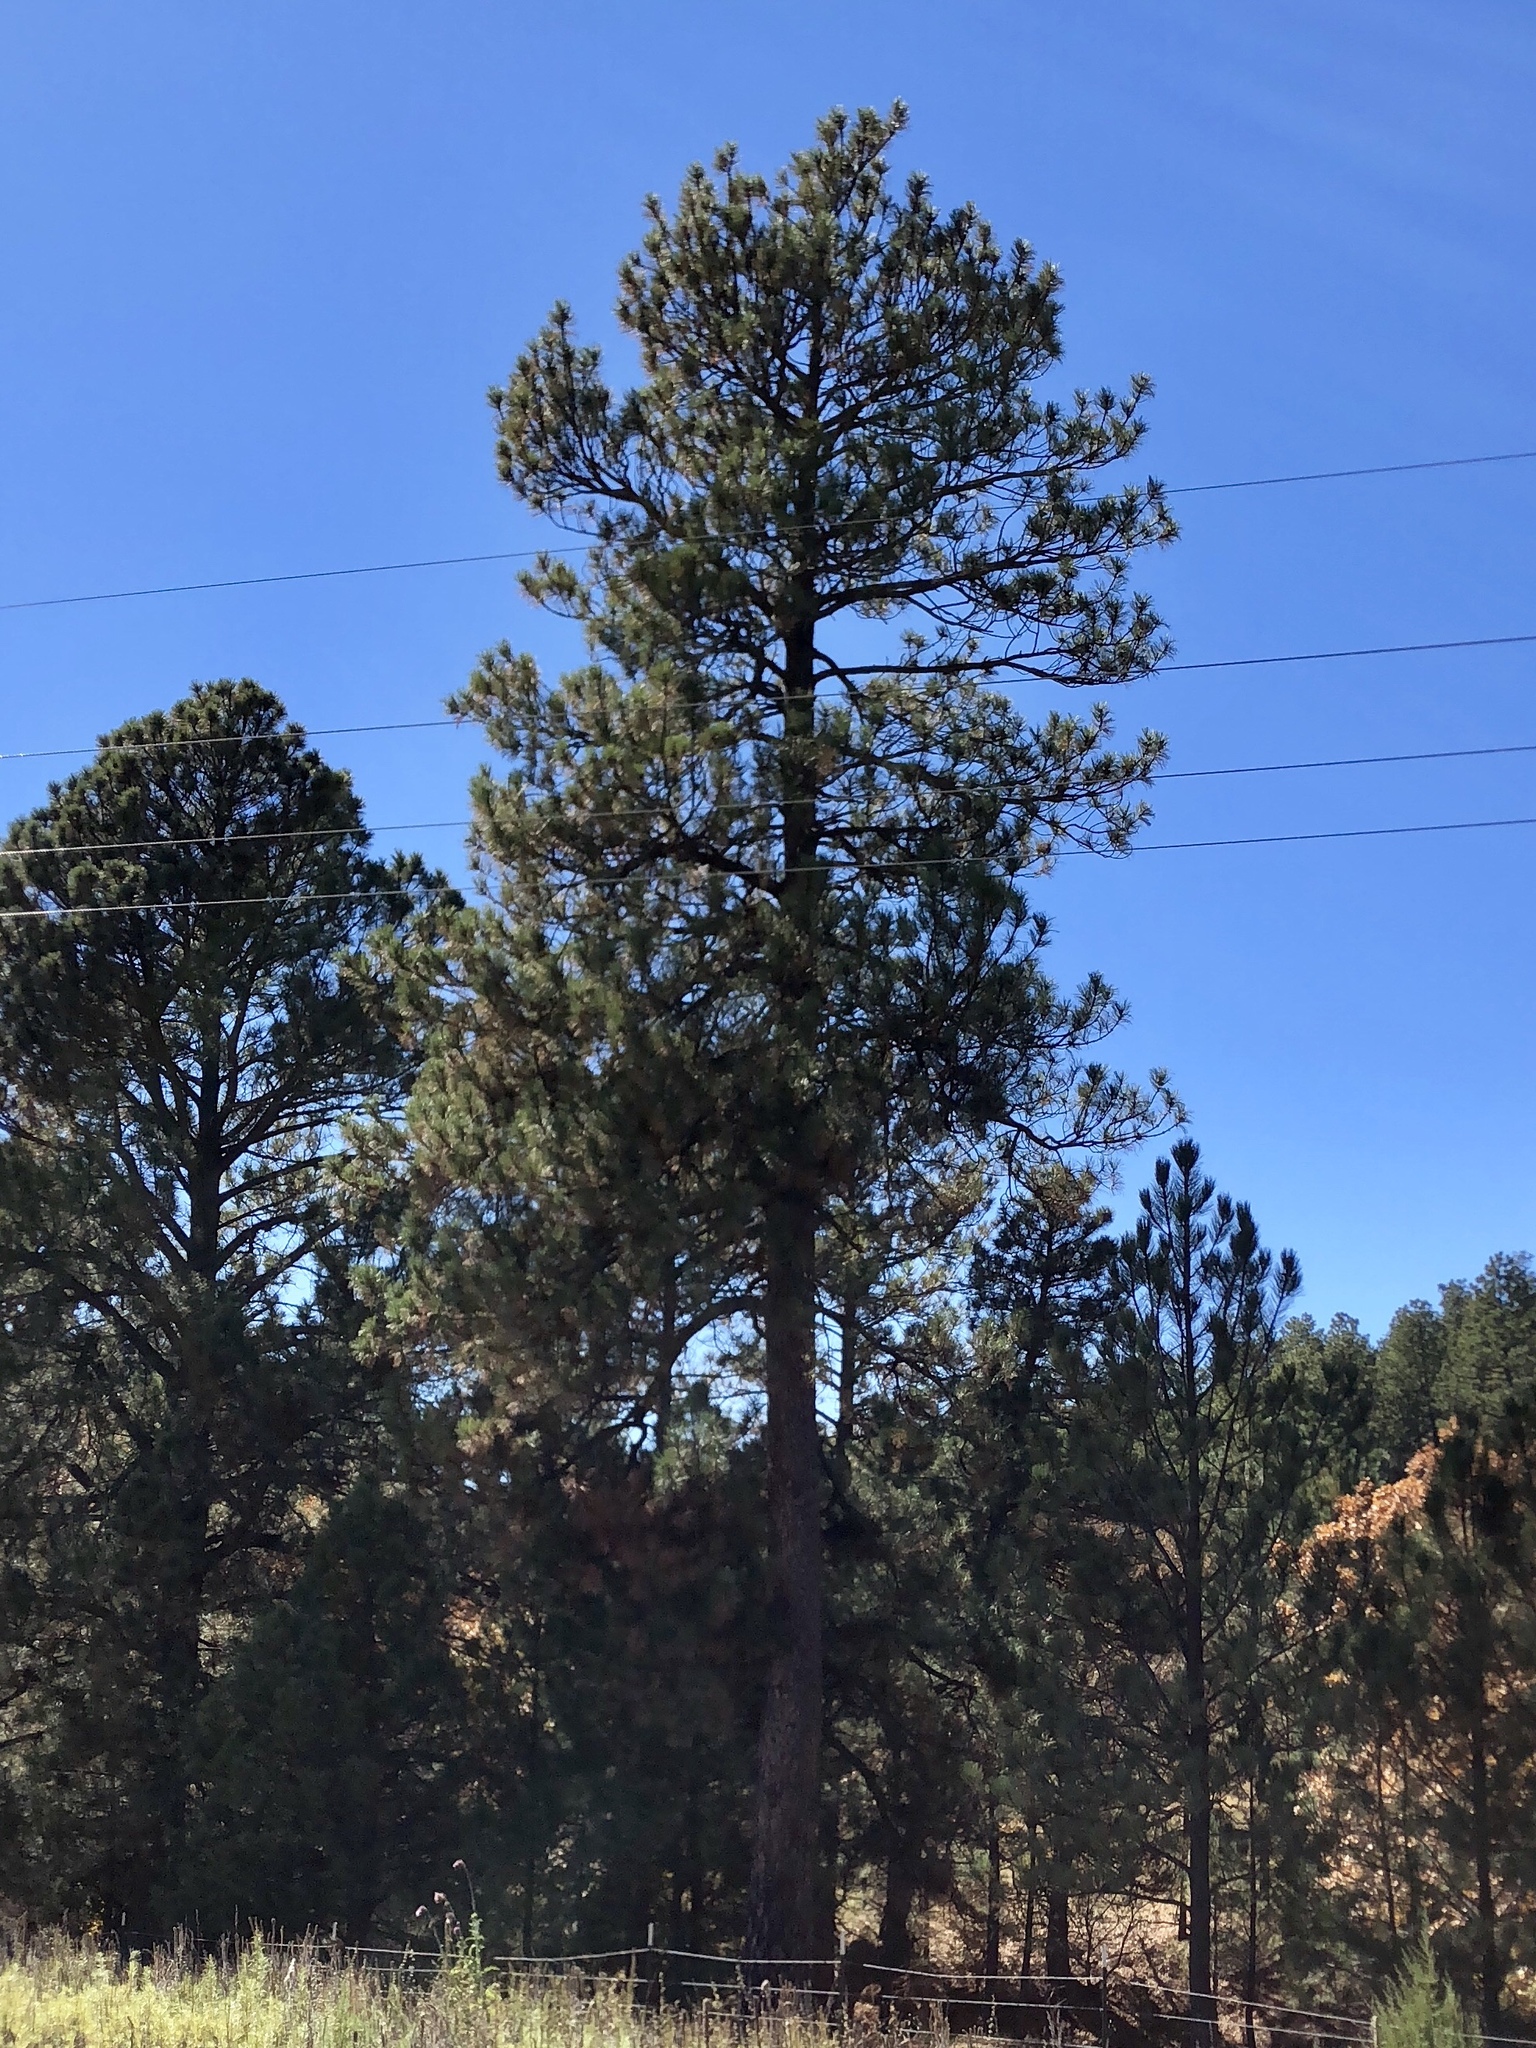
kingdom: Plantae
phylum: Tracheophyta
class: Pinopsida
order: Pinales
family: Pinaceae
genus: Pinus
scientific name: Pinus ponderosa
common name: Western yellow-pine
